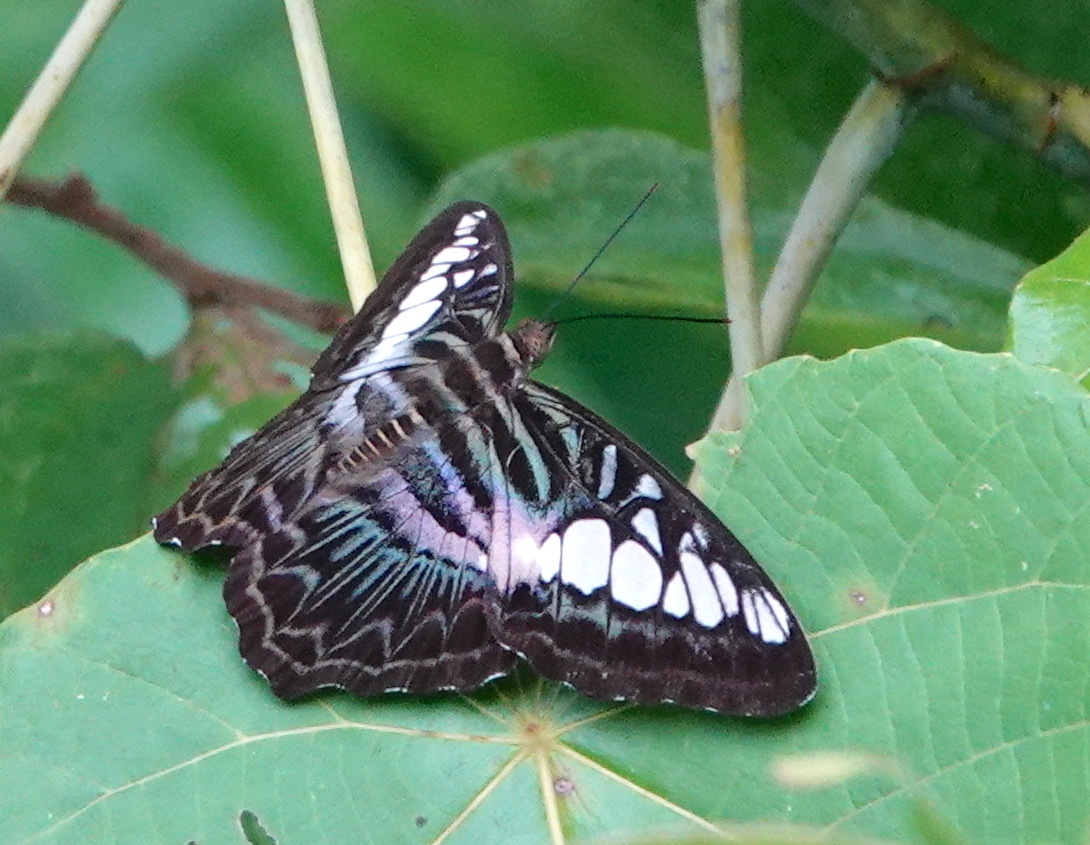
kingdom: Animalia
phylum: Arthropoda
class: Insecta
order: Lepidoptera
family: Nymphalidae
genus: Kallima
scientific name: Kallima sylvia
